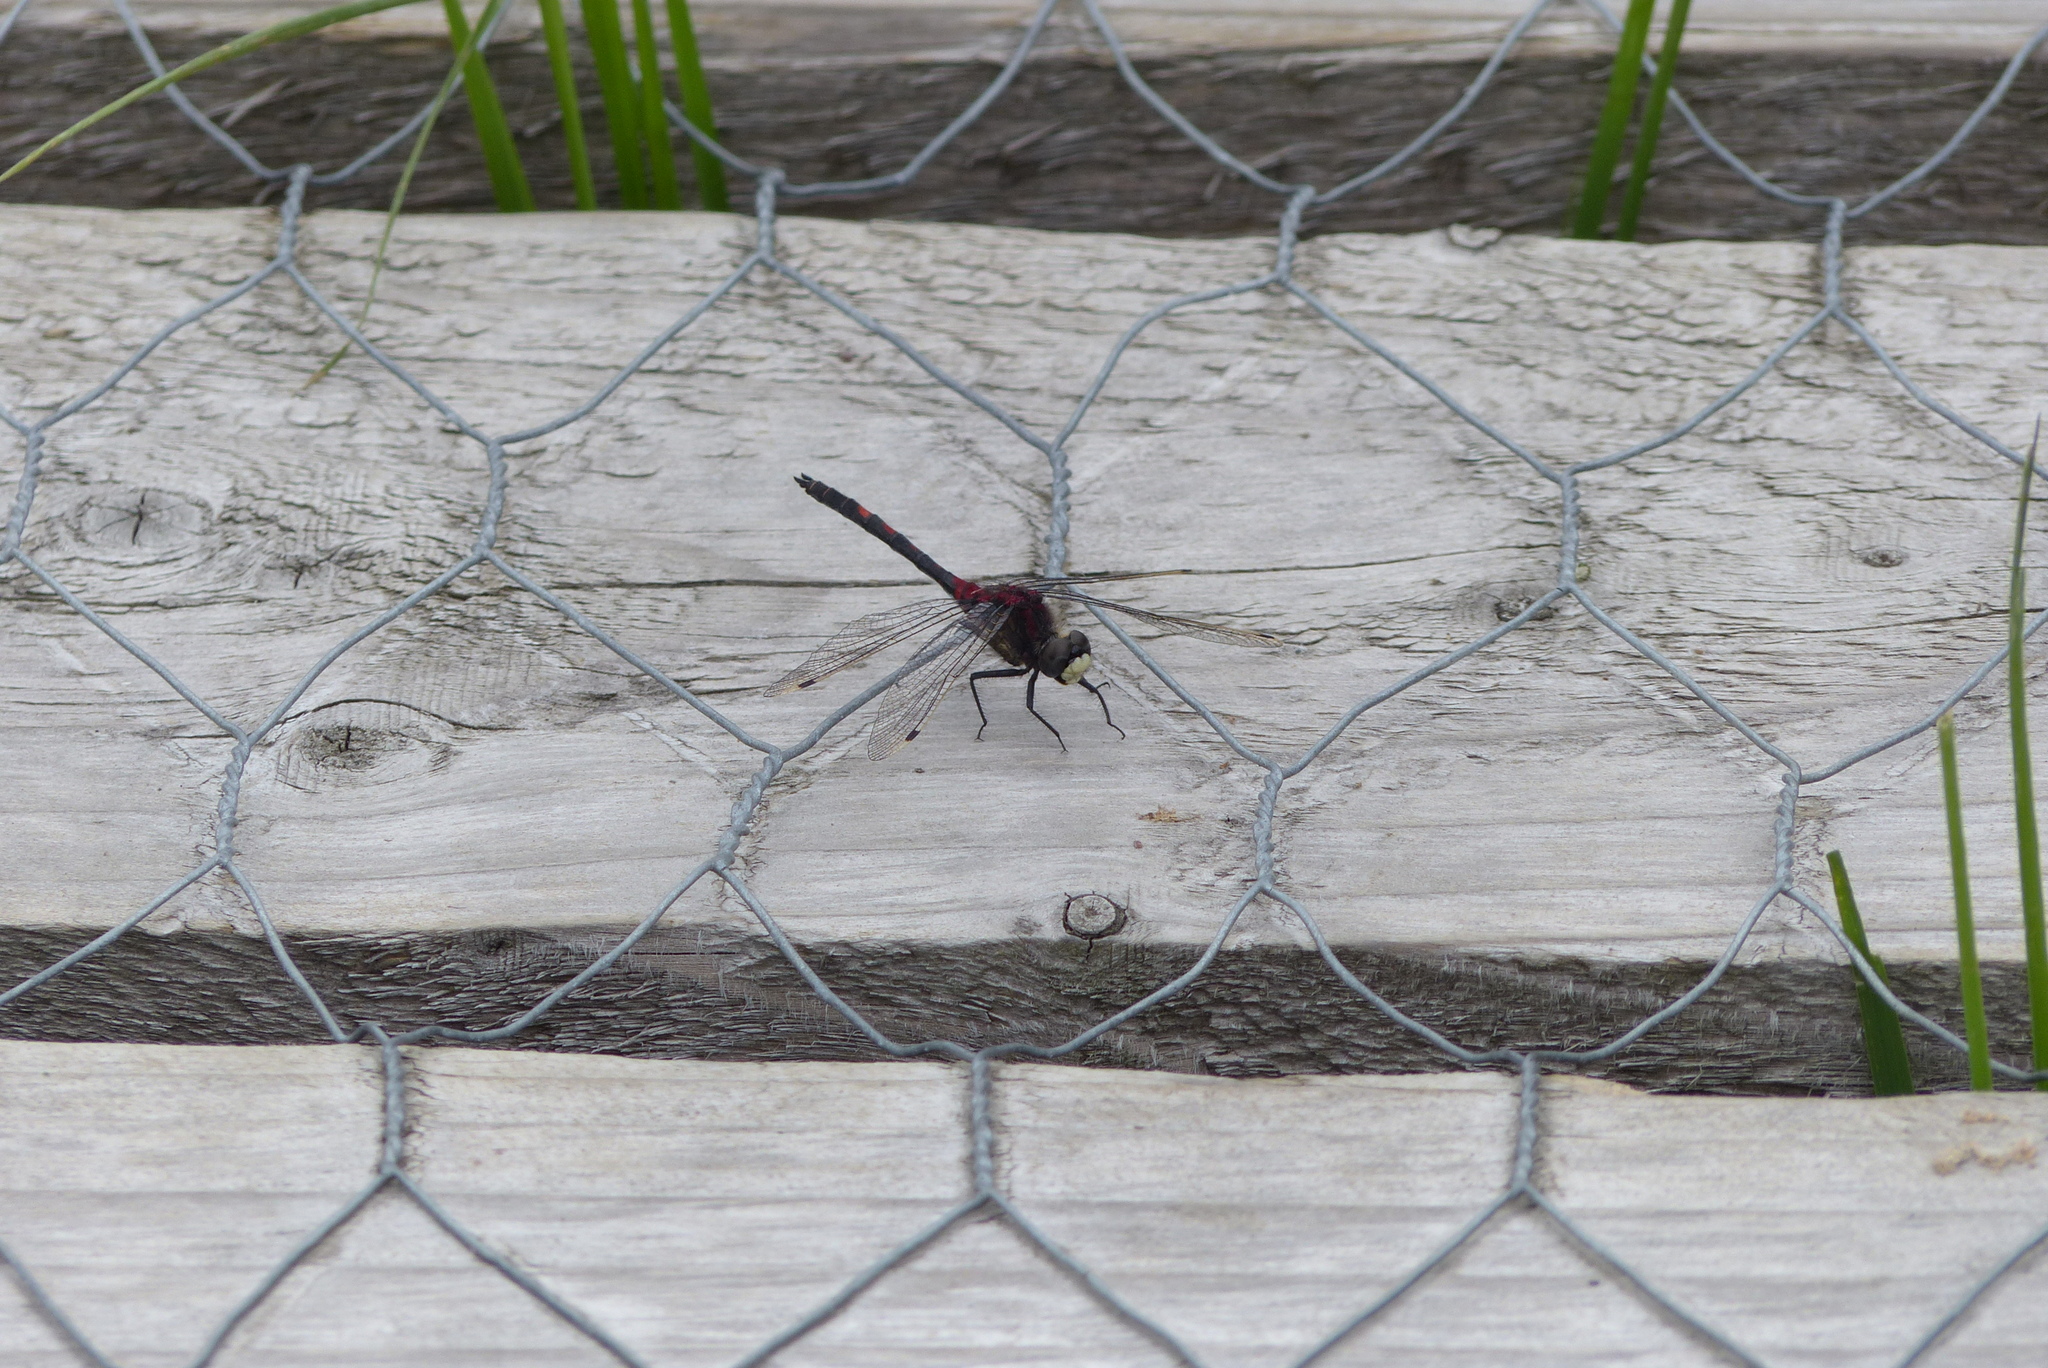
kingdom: Animalia
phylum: Arthropoda
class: Insecta
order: Odonata
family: Libellulidae
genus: Leucorrhinia
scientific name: Leucorrhinia dubia
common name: White-faced darter
